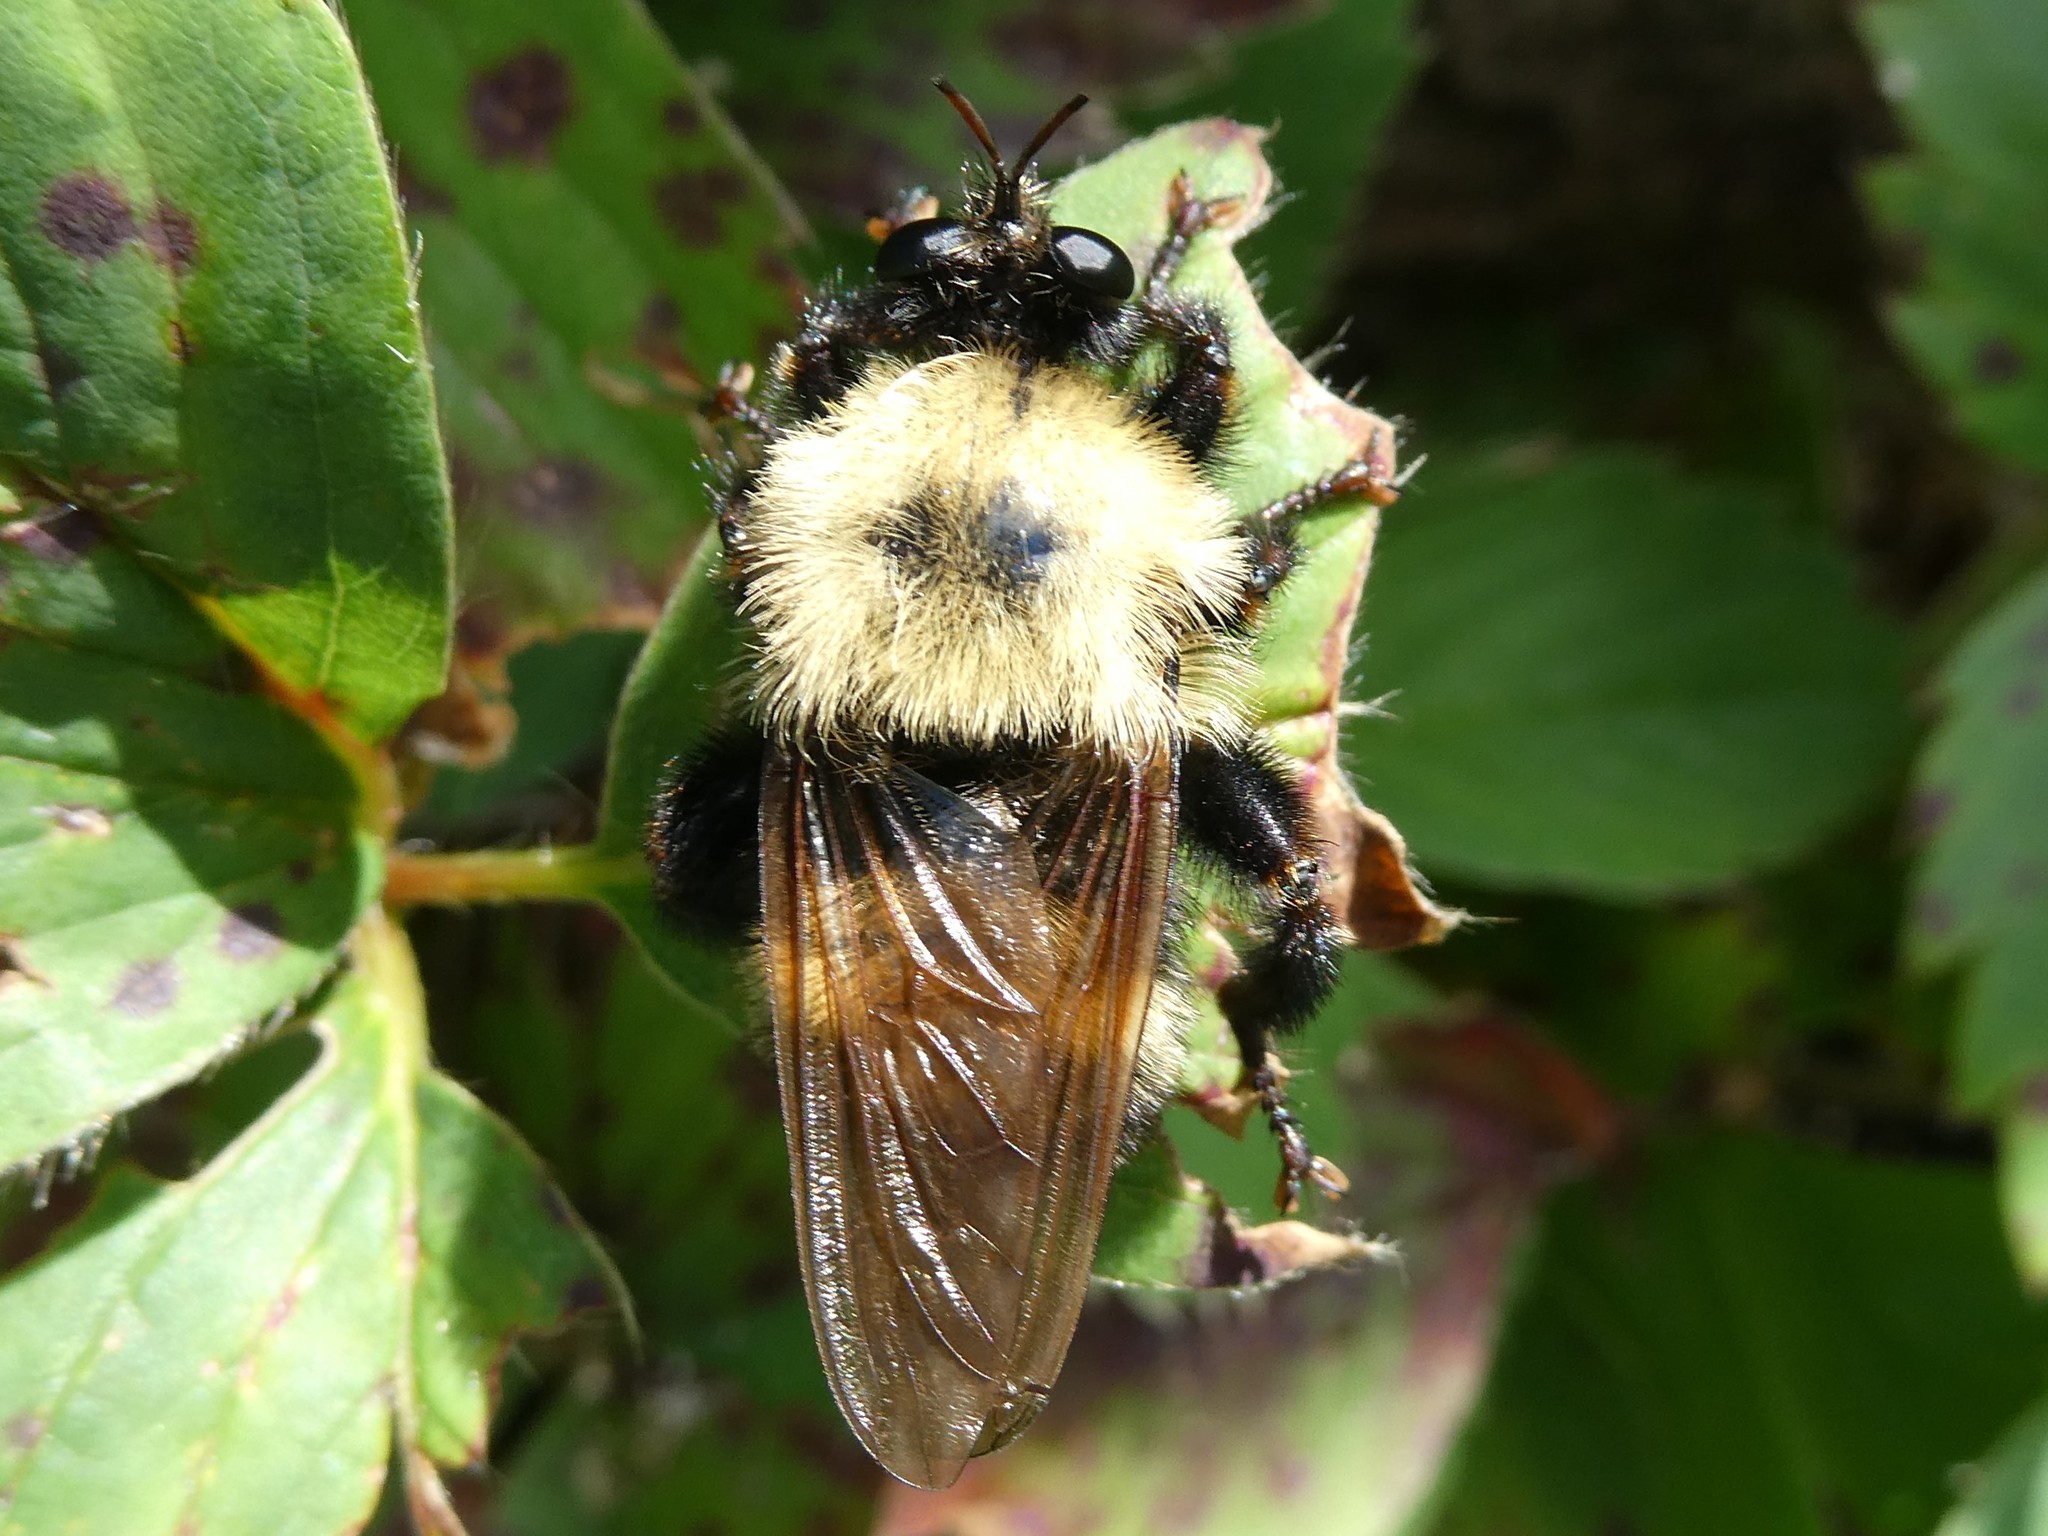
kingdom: Animalia
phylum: Arthropoda
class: Insecta
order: Diptera
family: Asilidae
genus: Laphria
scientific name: Laphria thoracica
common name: Bumble bee mimic robber fly
